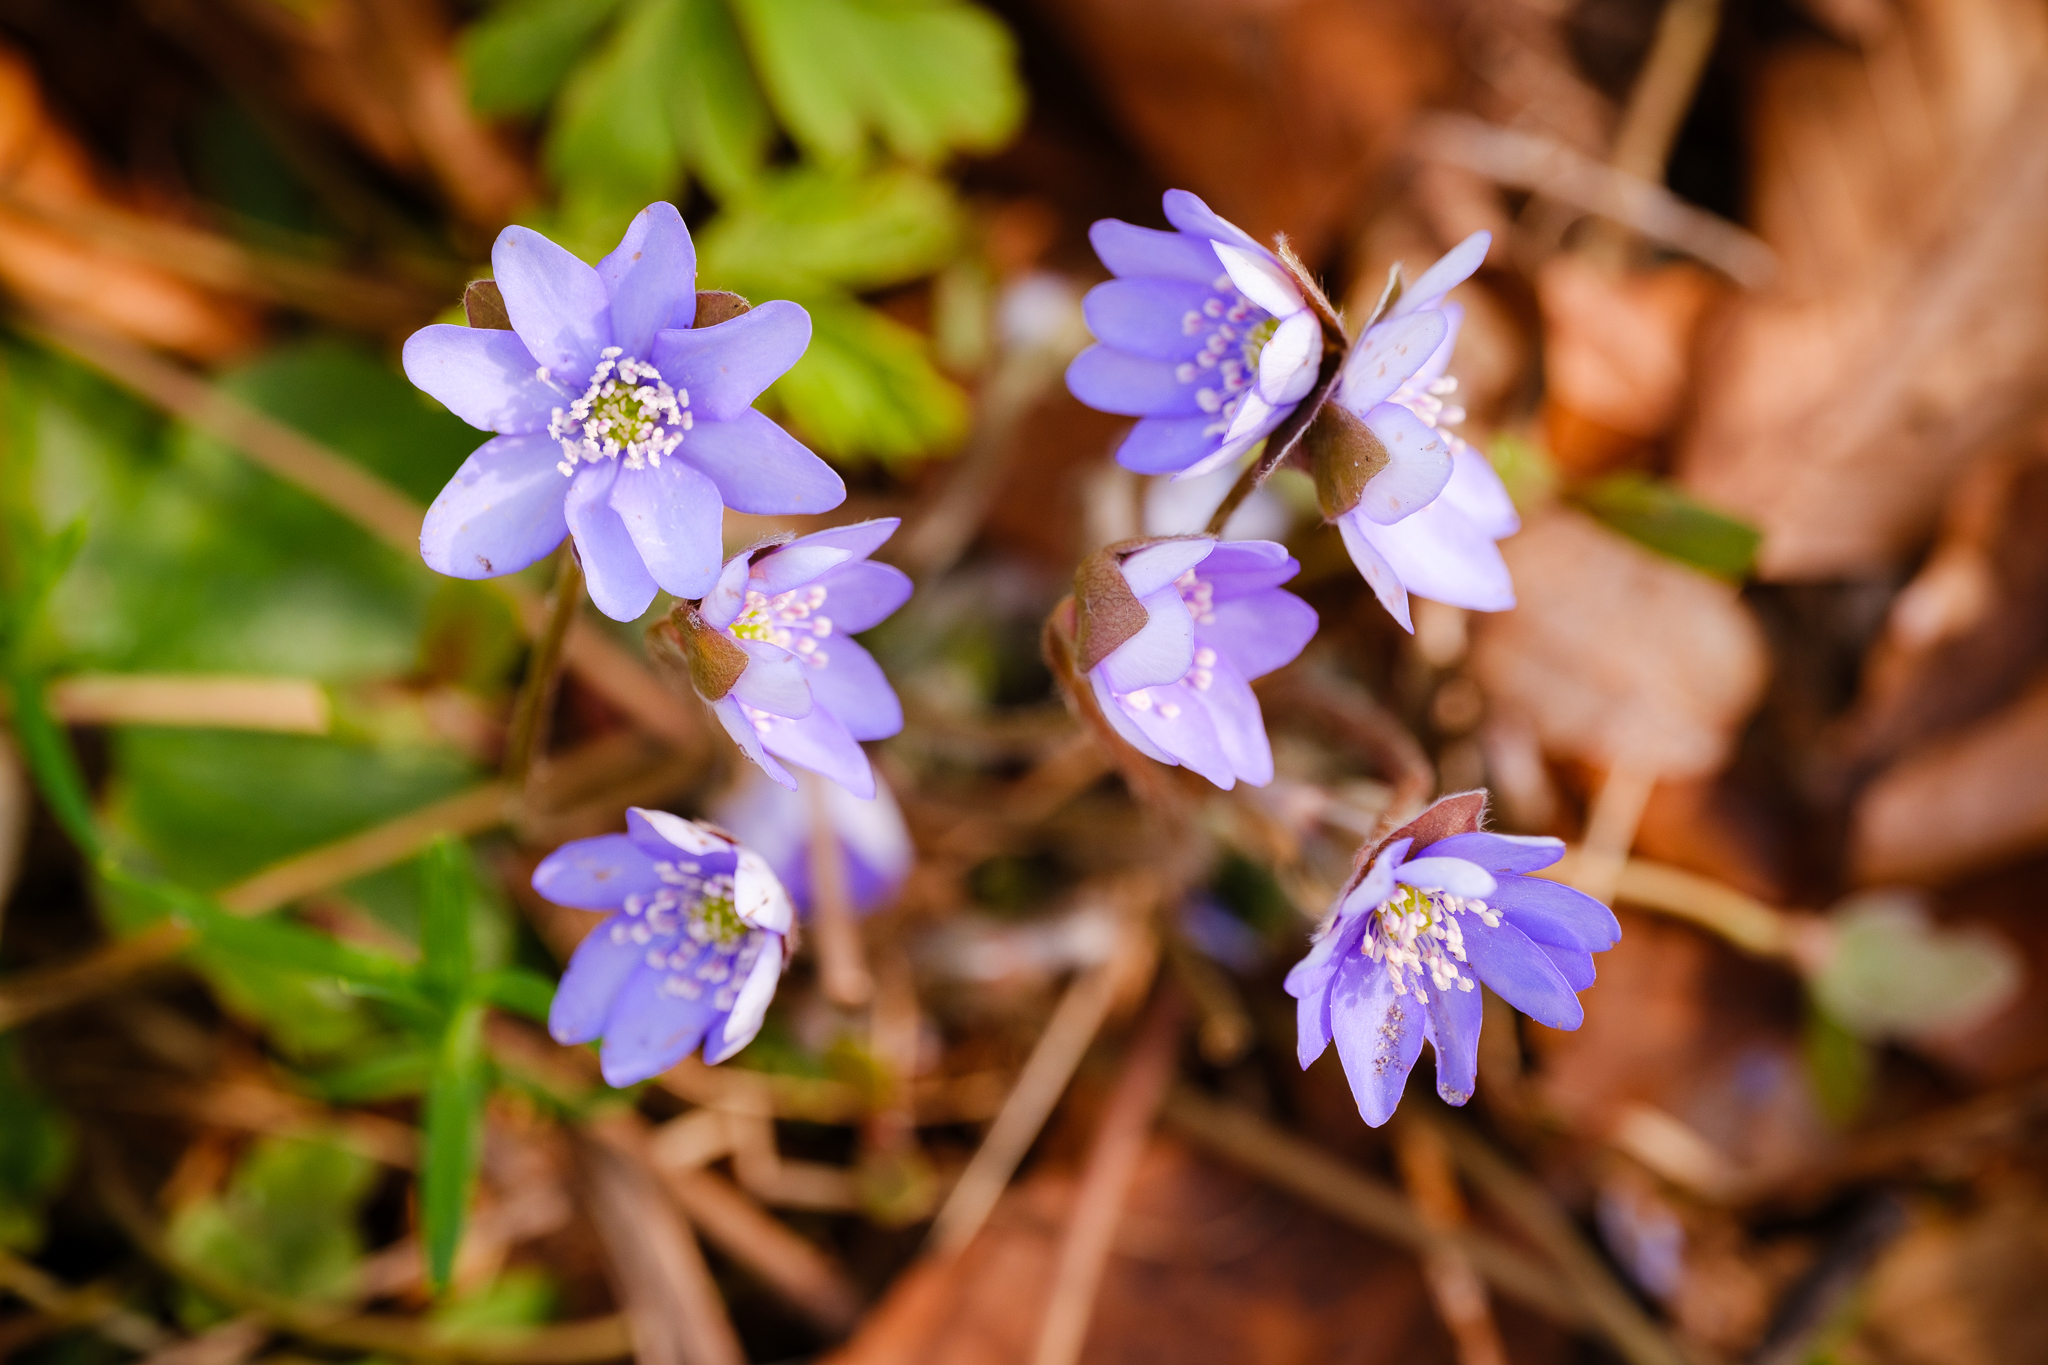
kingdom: Plantae
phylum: Tracheophyta
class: Magnoliopsida
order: Ranunculales
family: Ranunculaceae
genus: Hepatica
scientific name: Hepatica nobilis
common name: Liverleaf
